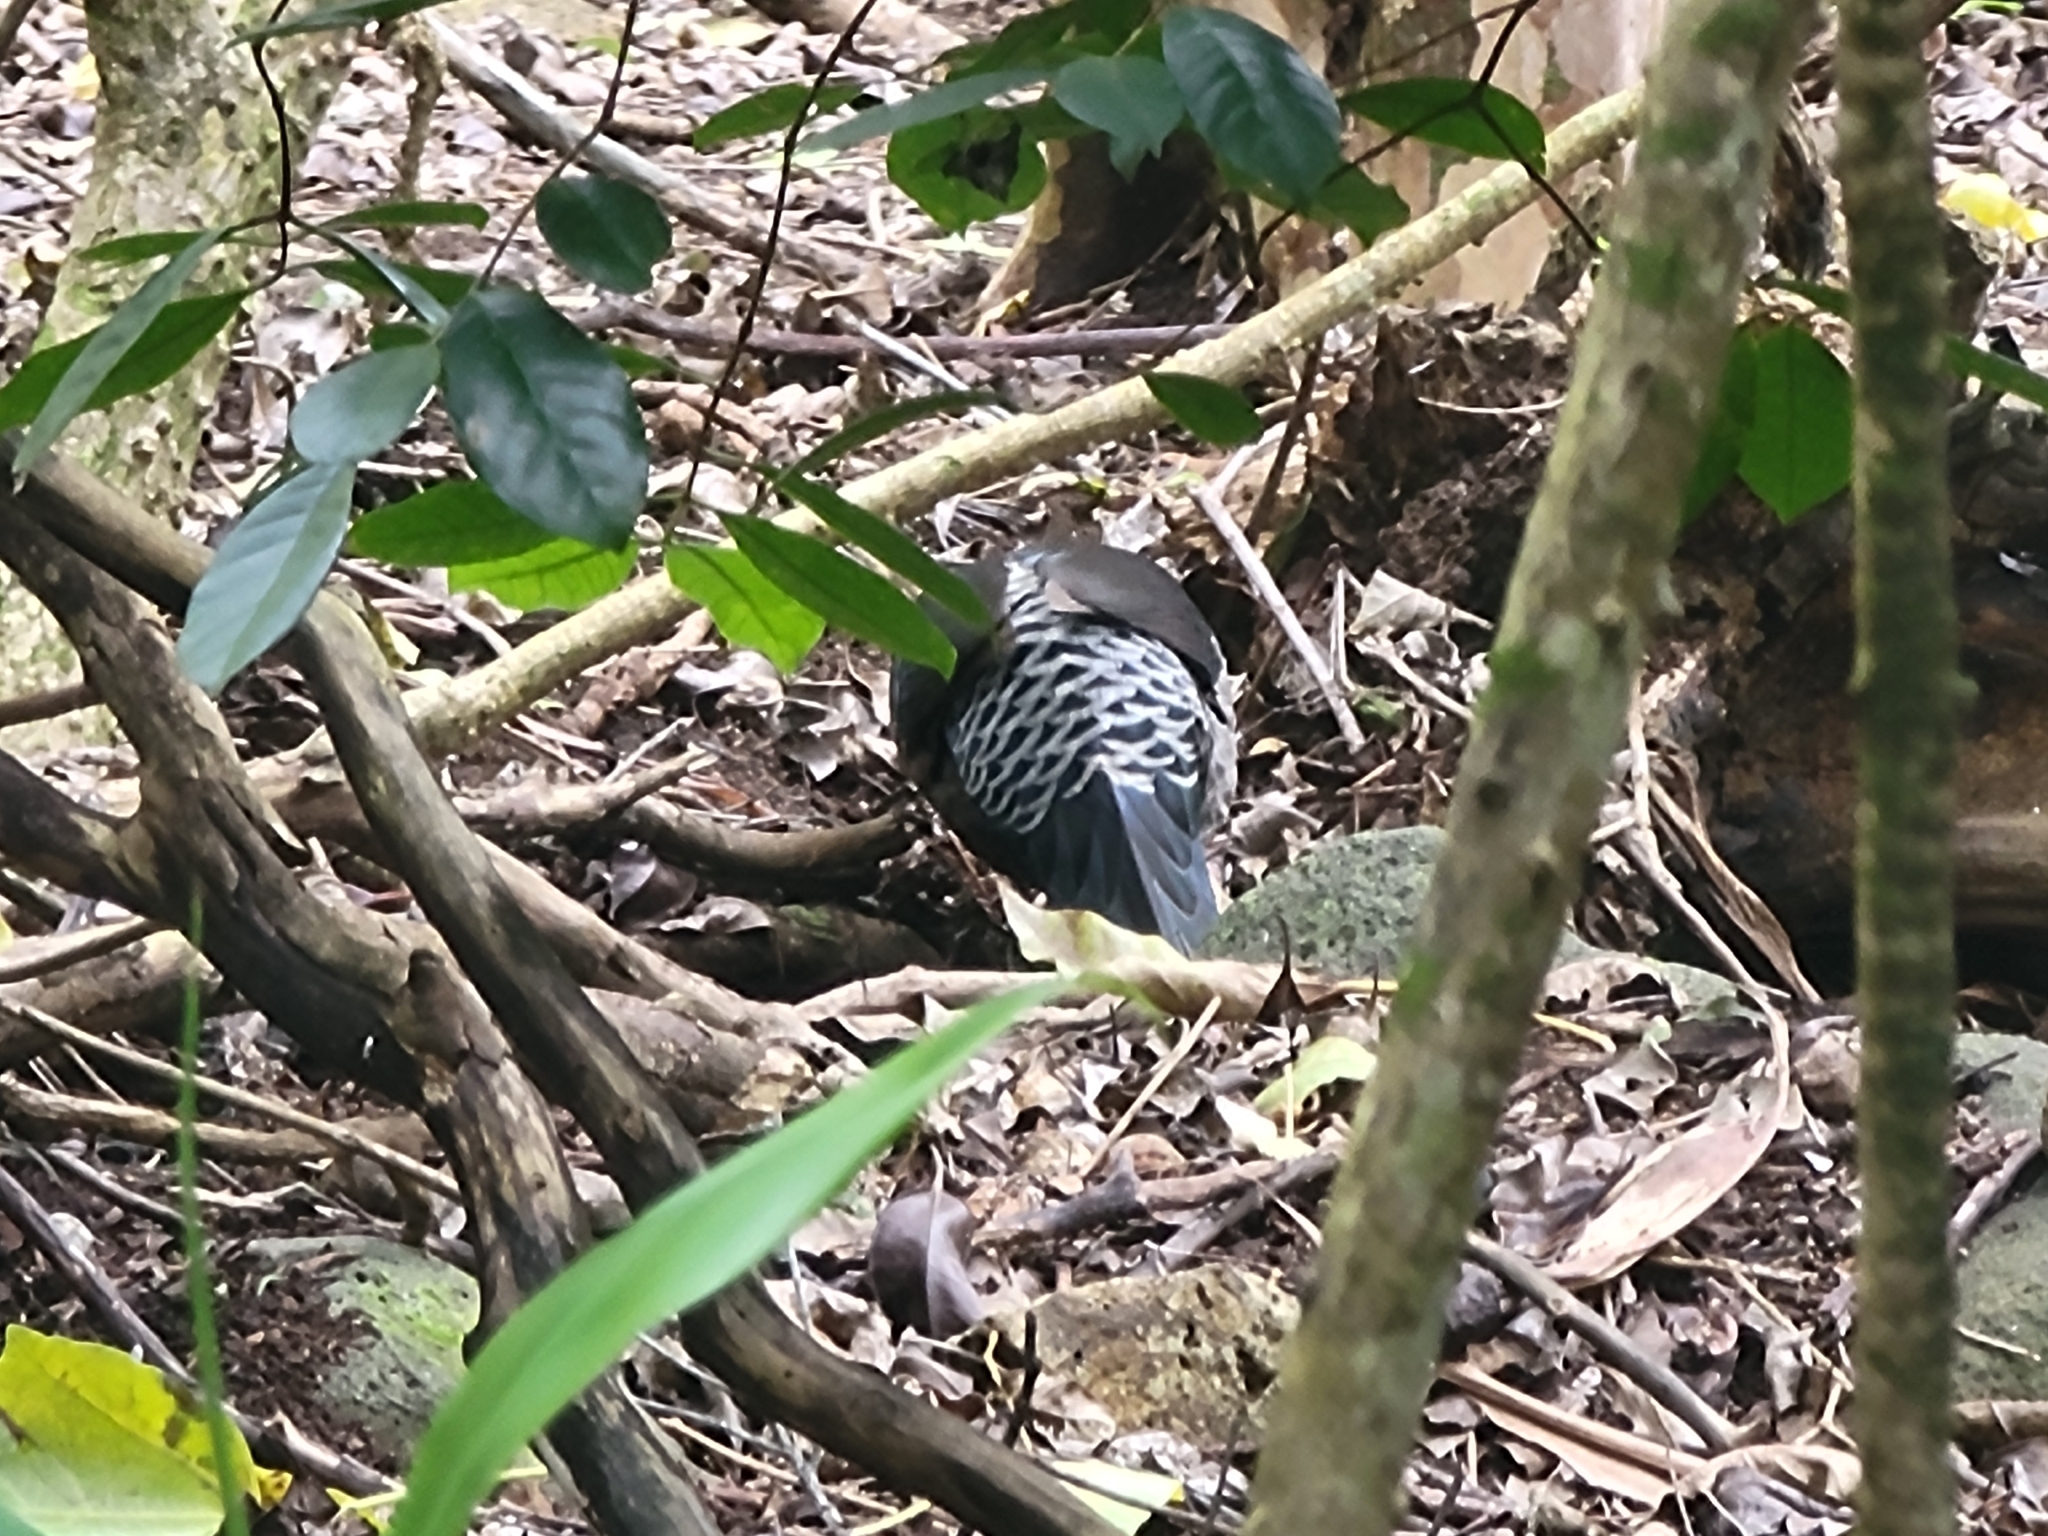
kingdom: Animalia
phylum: Chordata
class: Aves
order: Galliformes
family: Phasianidae
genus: Lophura
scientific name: Lophura leucomelanos
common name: Kalij pheasant
